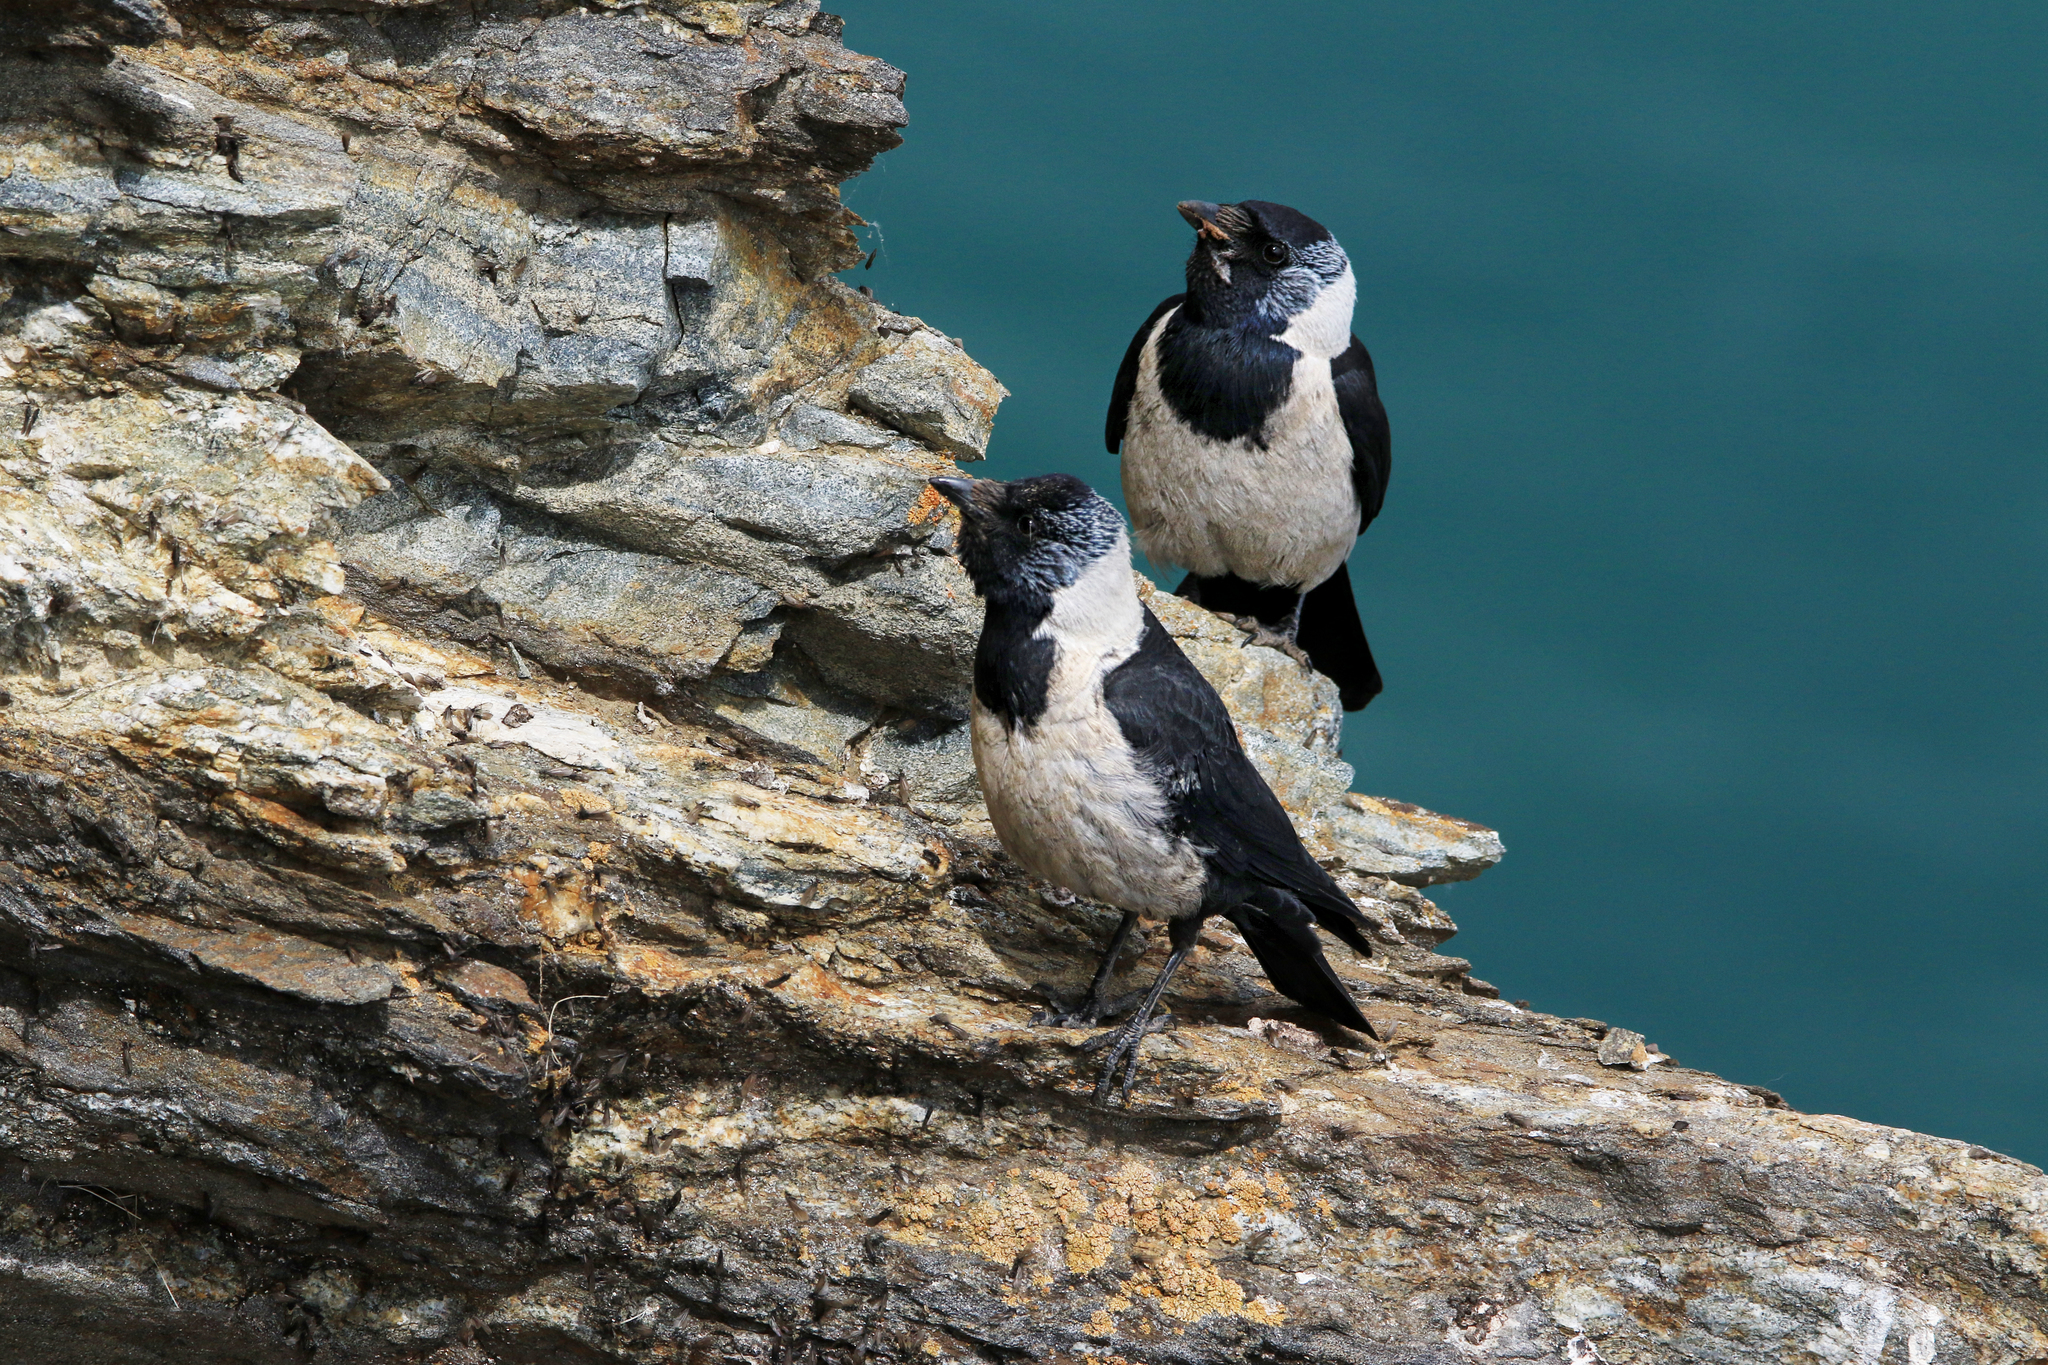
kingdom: Animalia
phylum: Chordata
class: Aves
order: Passeriformes
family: Corvidae
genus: Coloeus
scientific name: Coloeus dauuricus
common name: Daurian jackdaw
